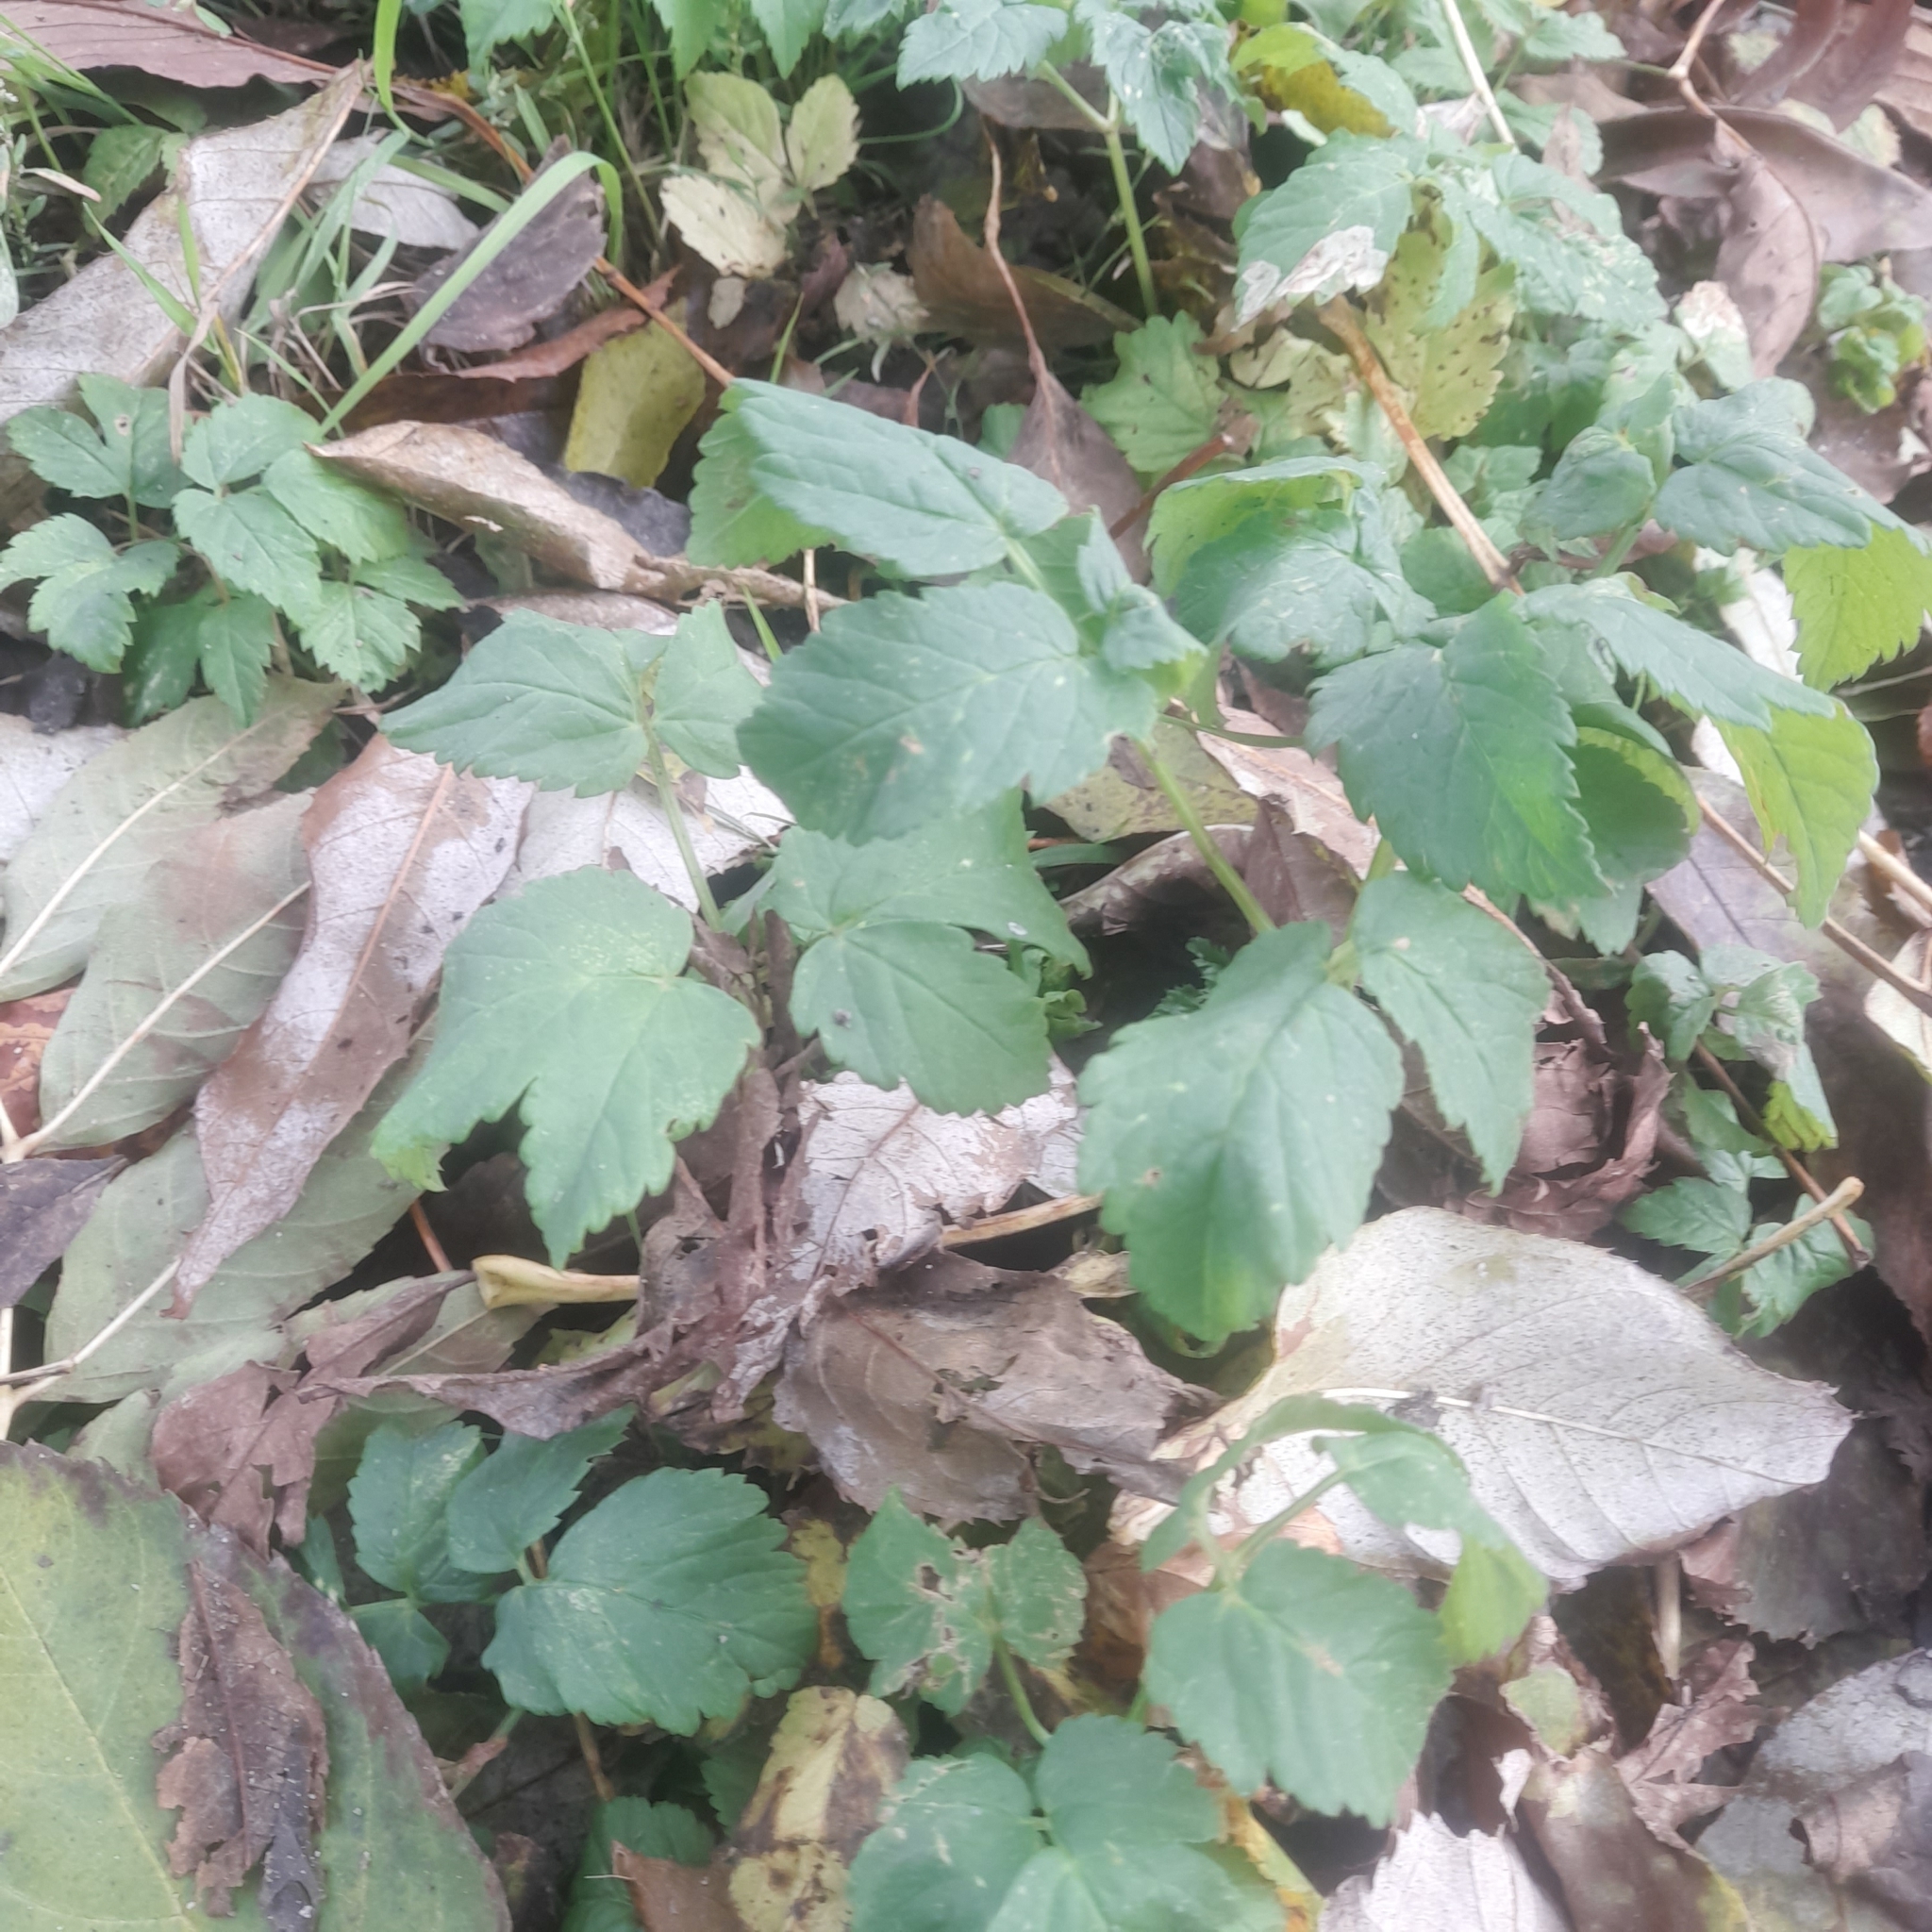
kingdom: Plantae
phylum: Tracheophyta
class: Magnoliopsida
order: Apiales
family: Apiaceae
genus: Aegopodium
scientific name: Aegopodium podagraria
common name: Ground-elder
